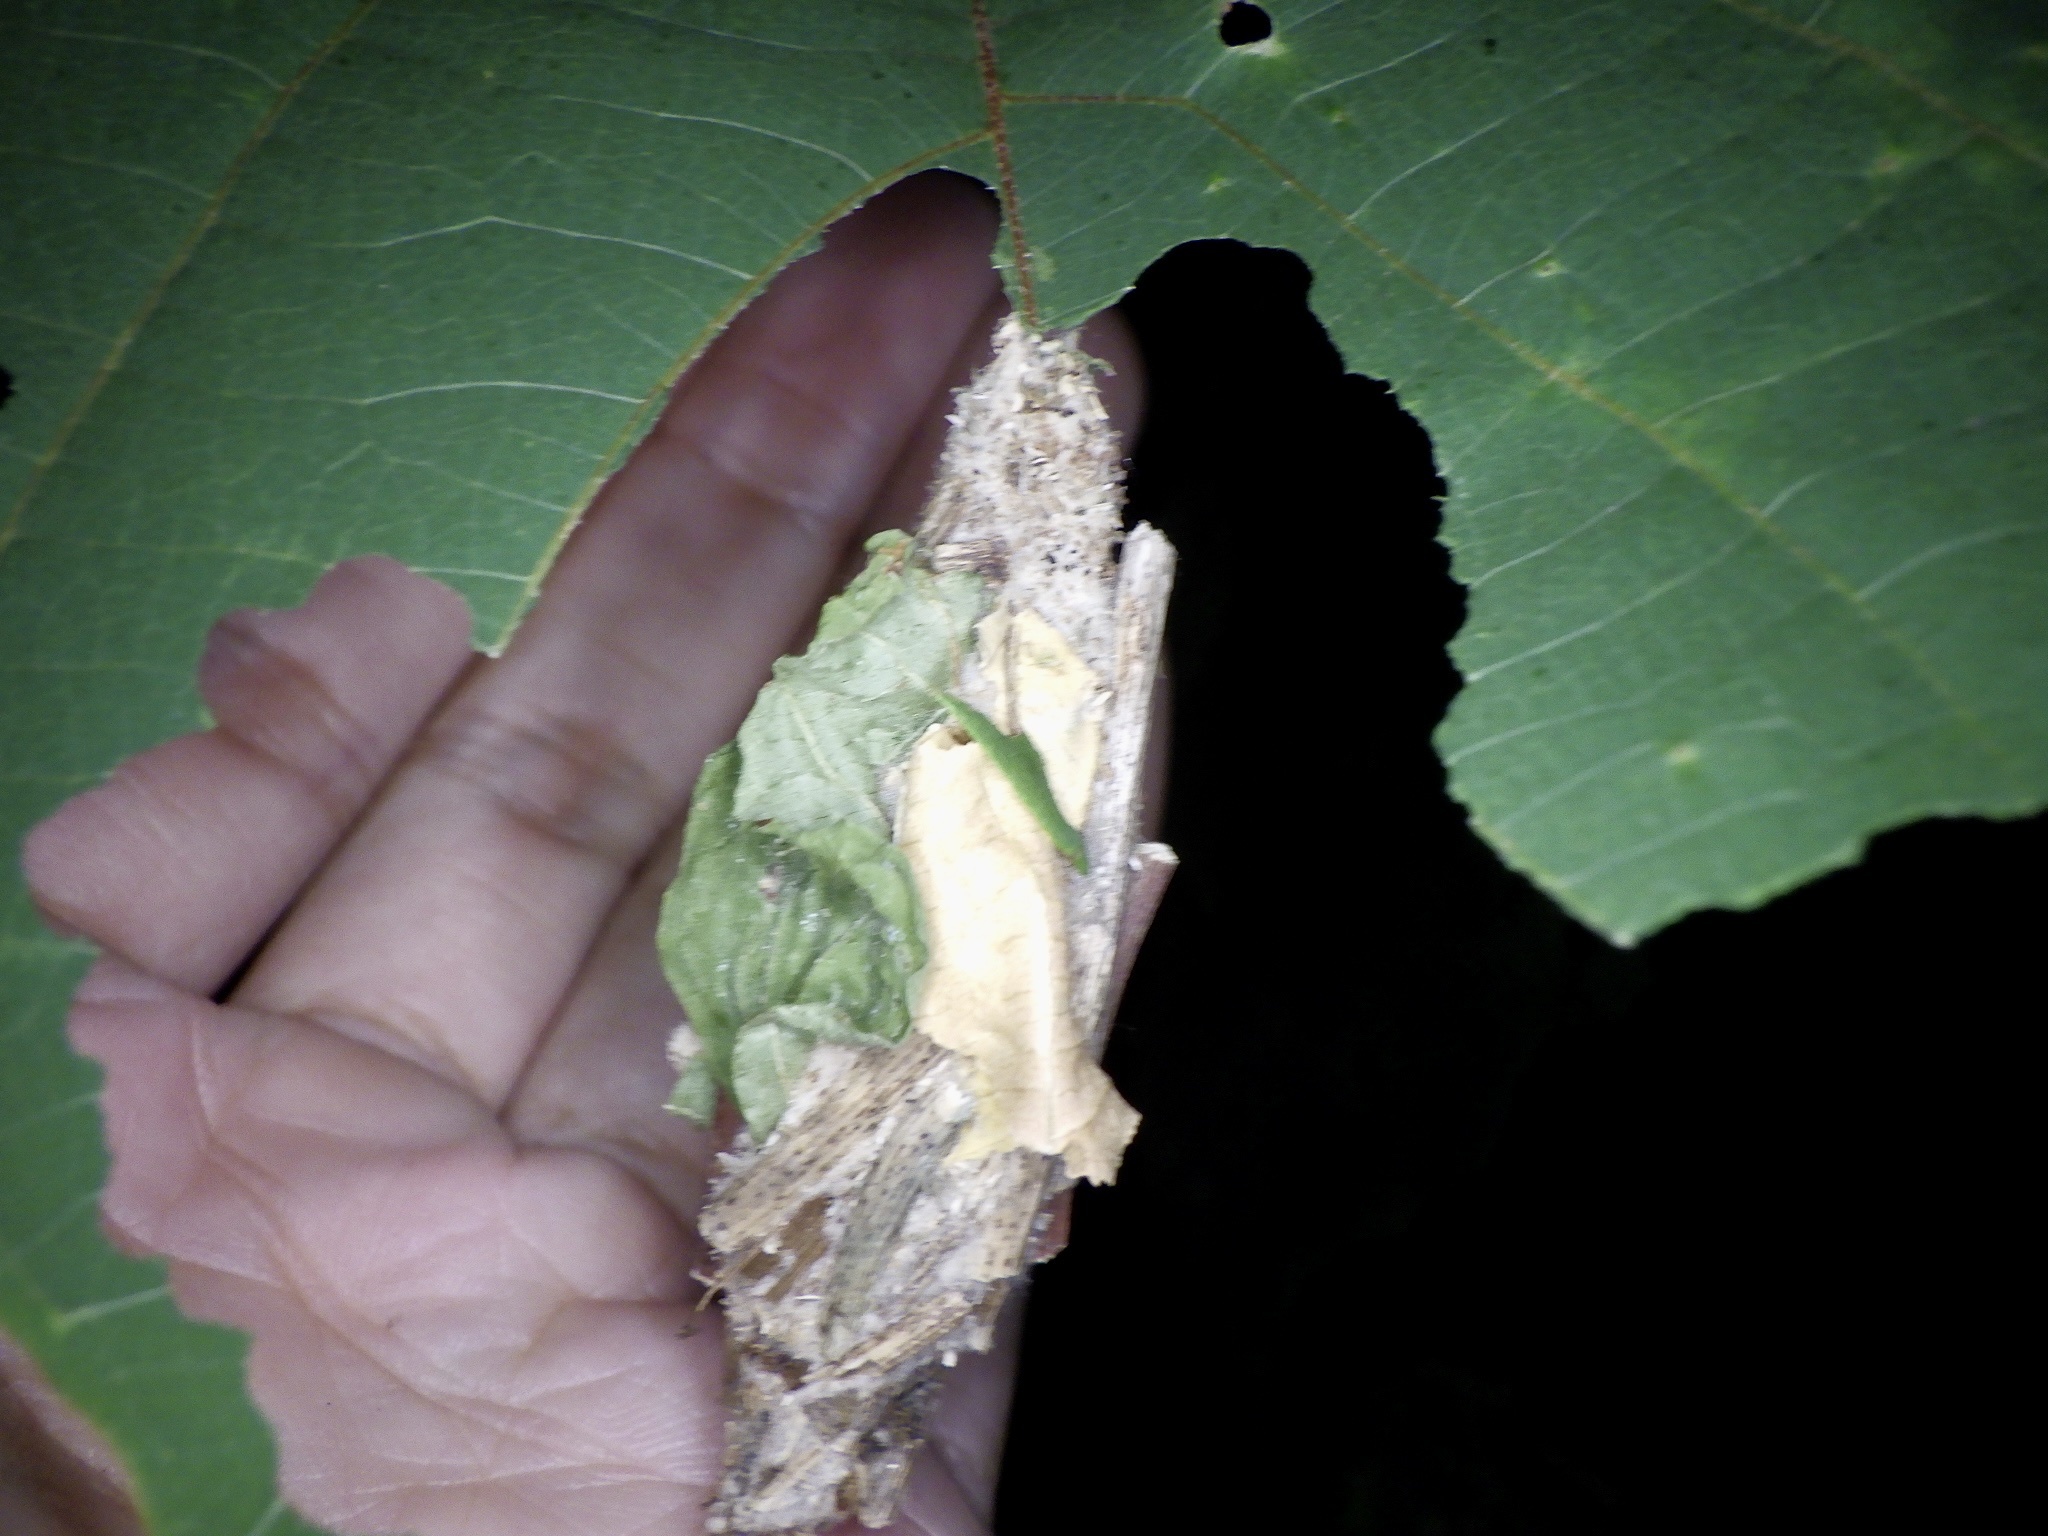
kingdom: Animalia
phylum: Arthropoda
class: Insecta
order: Lepidoptera
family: Psychidae
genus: Eumeta
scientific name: Eumeta variegatus
